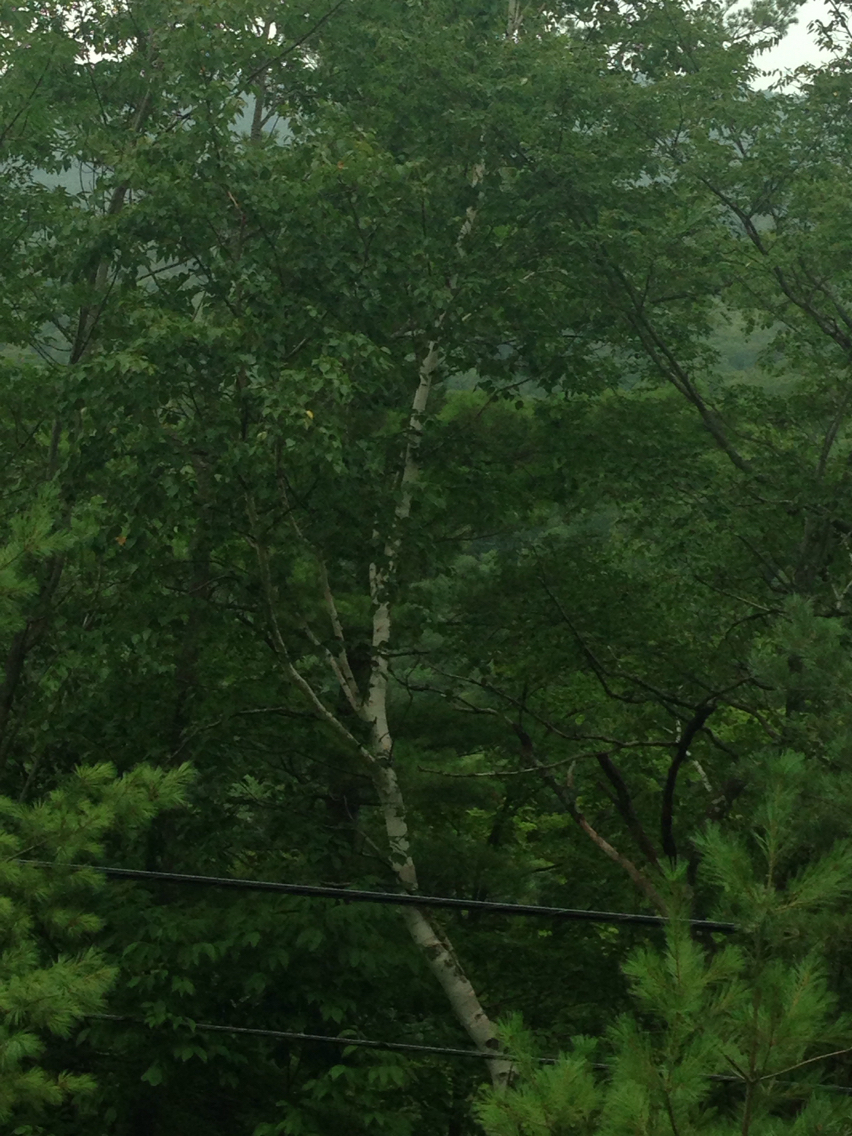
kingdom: Plantae
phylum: Tracheophyta
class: Magnoliopsida
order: Fagales
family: Betulaceae
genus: Betula
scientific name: Betula papyrifera
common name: Paper birch
